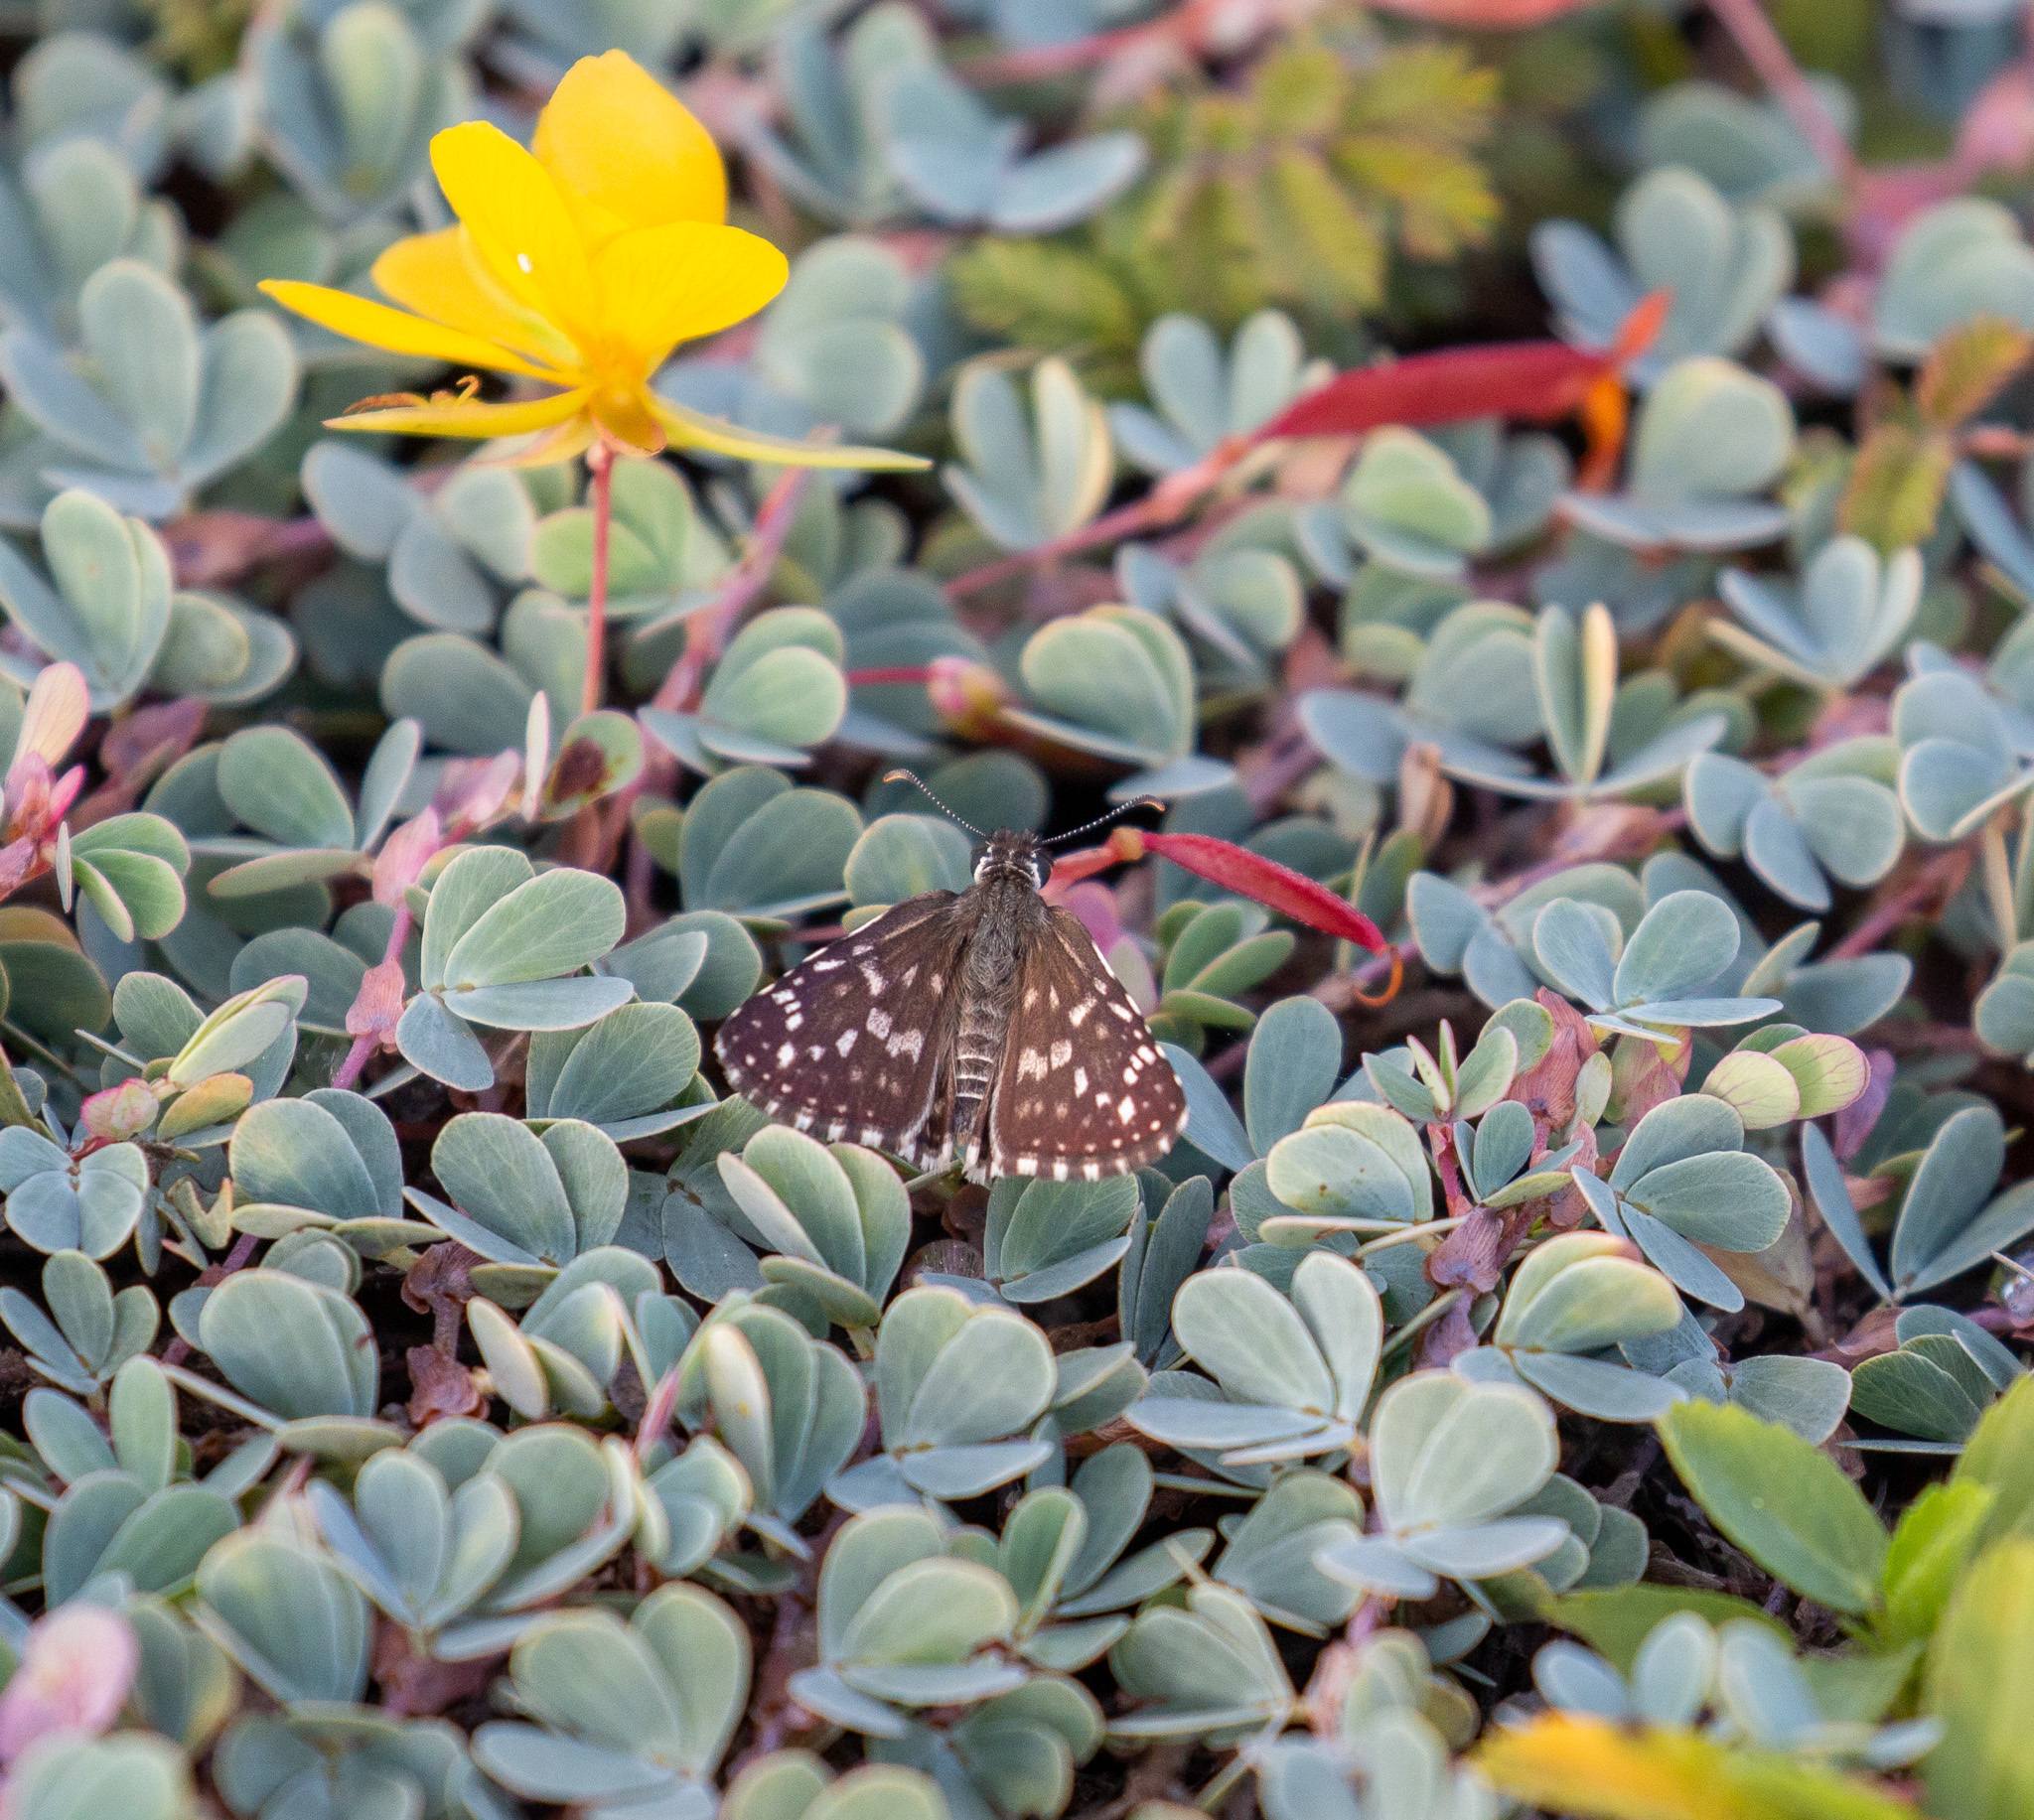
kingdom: Animalia
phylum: Arthropoda
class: Insecta
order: Lepidoptera
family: Hesperiidae
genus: Pyrgus
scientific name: Pyrgus oileus
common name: Tropical checkered-skipper
